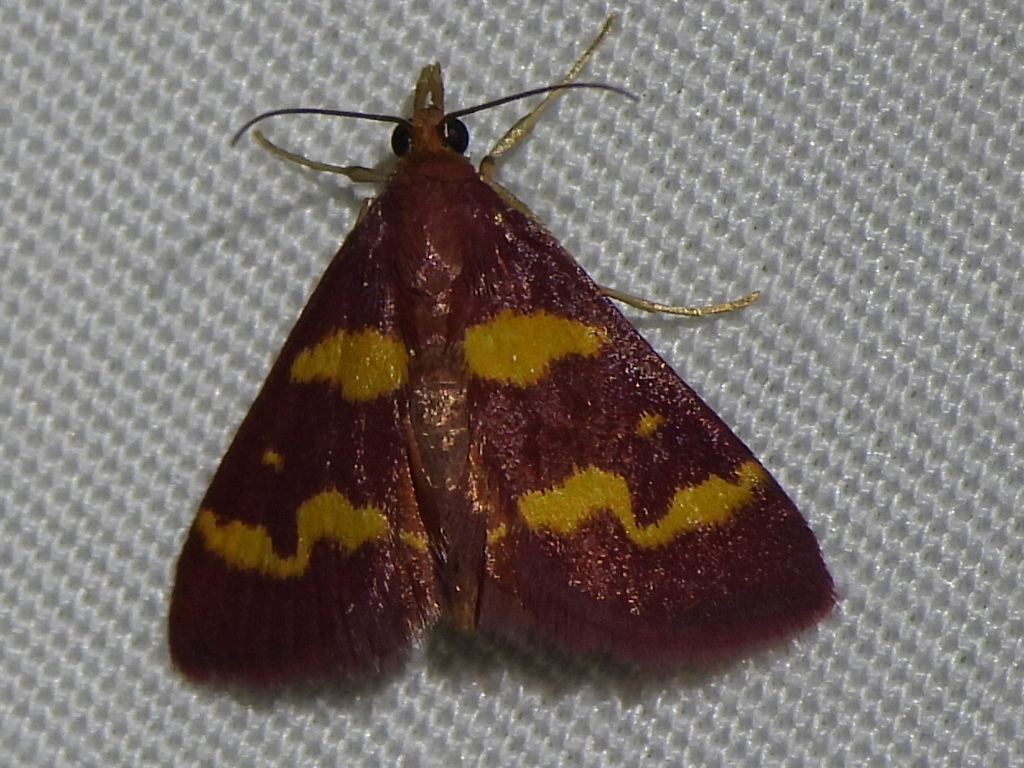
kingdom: Animalia
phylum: Arthropoda
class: Insecta
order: Lepidoptera
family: Crambidae
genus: Pyrausta
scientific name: Pyrausta tyralis
